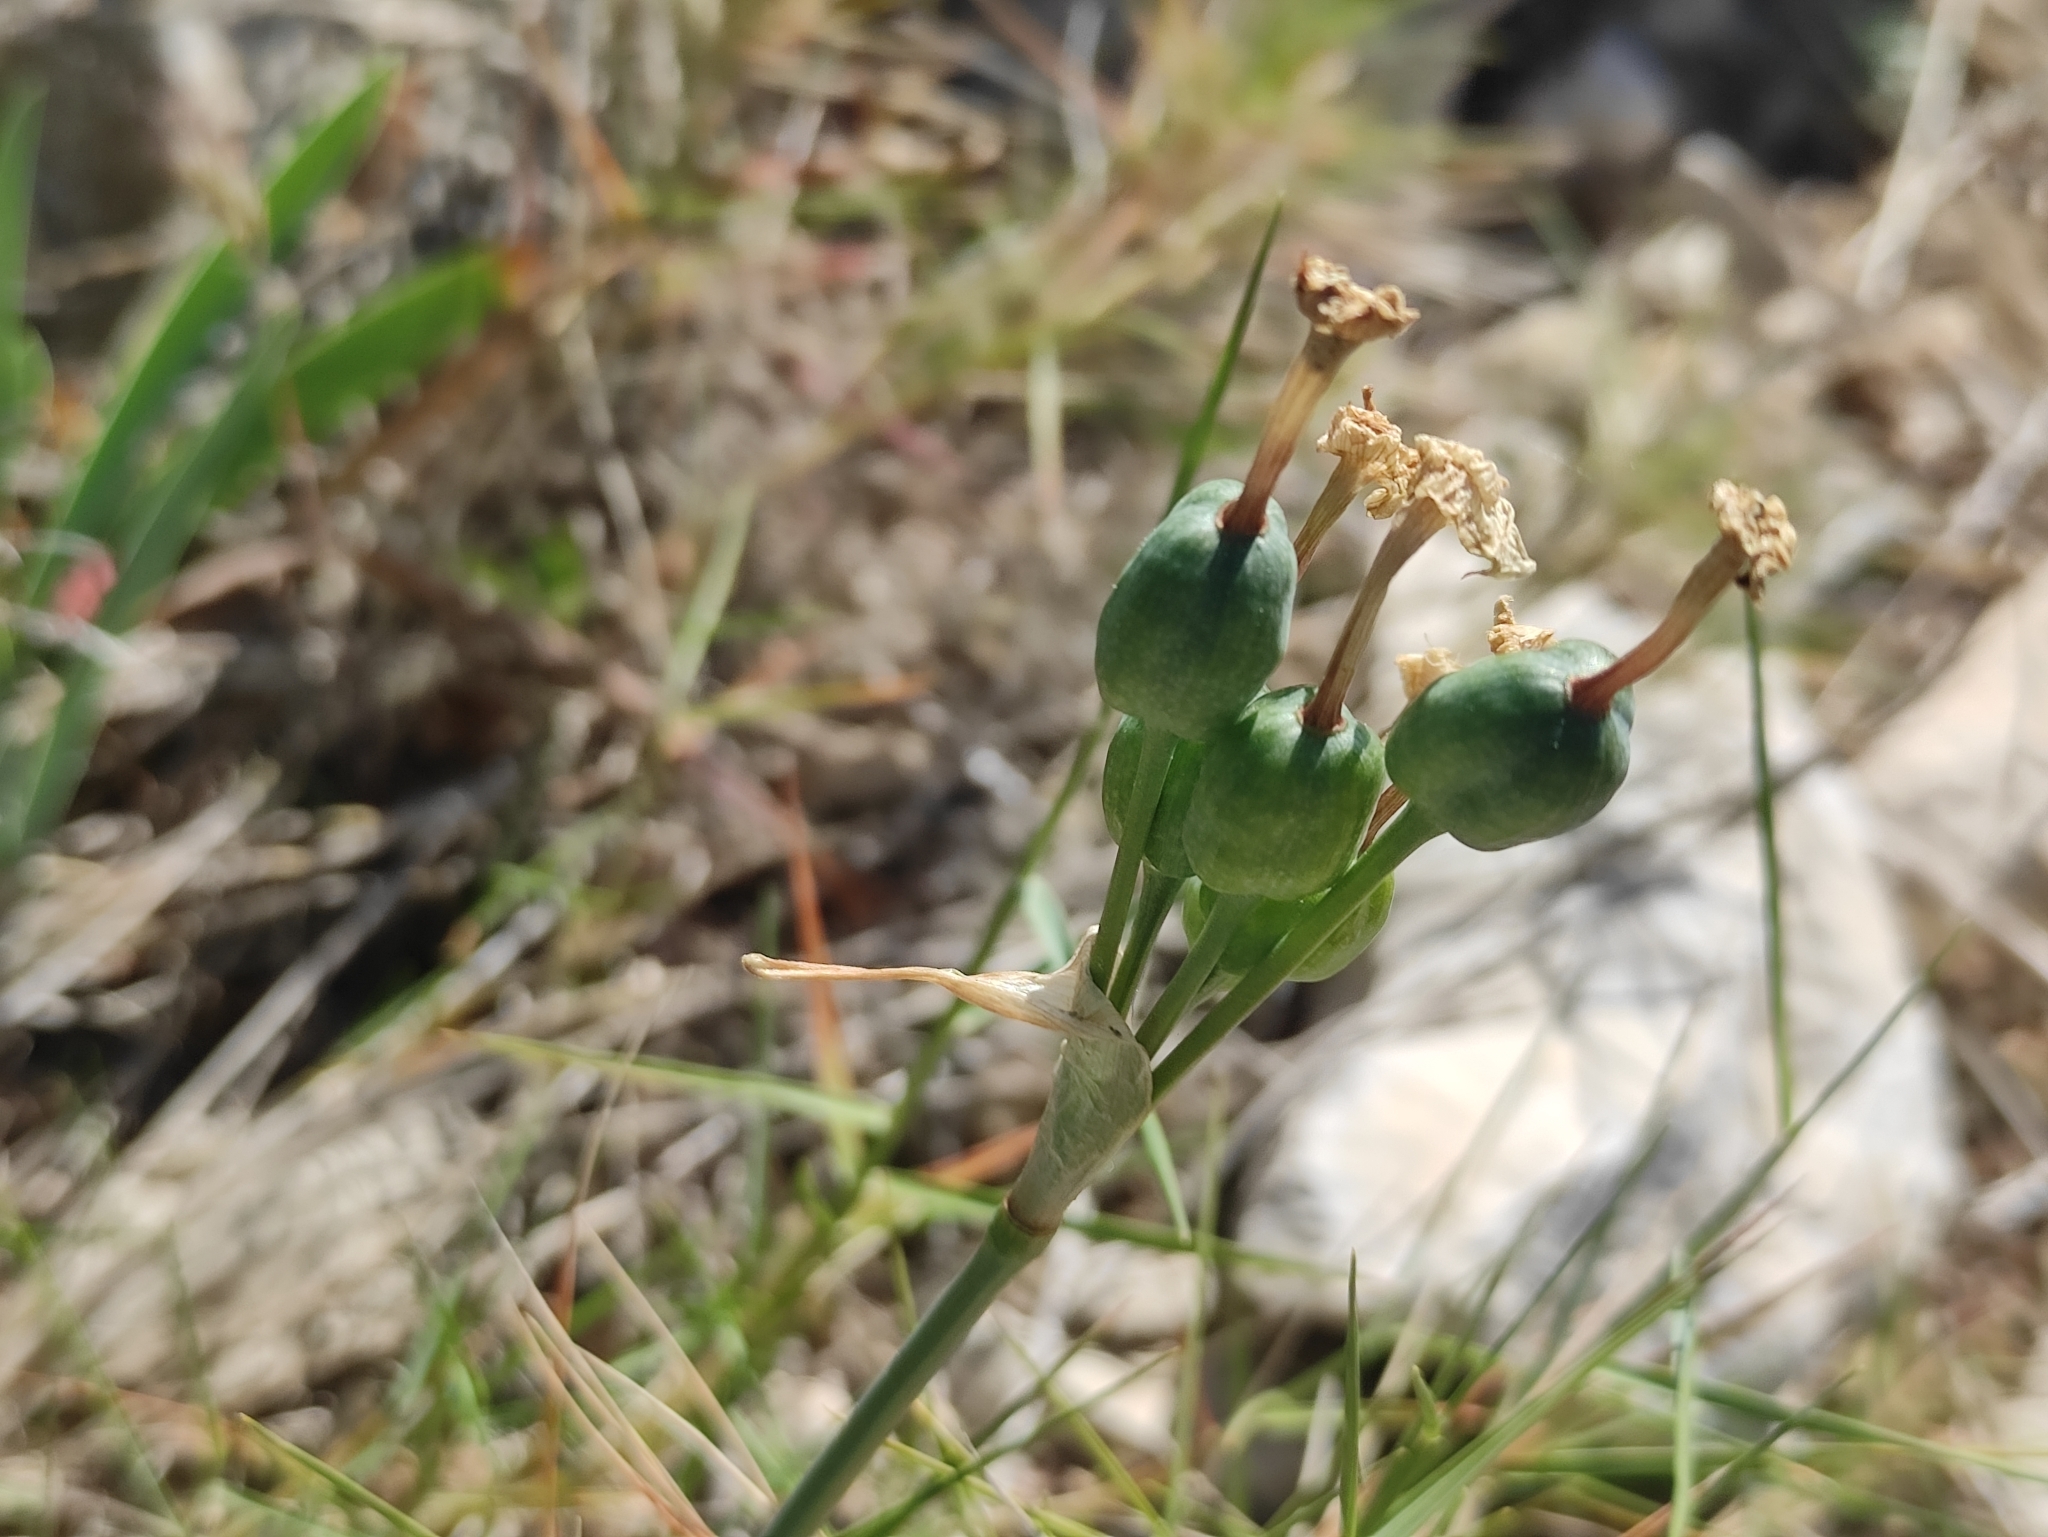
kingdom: Plantae
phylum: Tracheophyta
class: Liliopsida
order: Asparagales
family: Amaryllidaceae
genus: Narcissus
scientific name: Narcissus dubius
